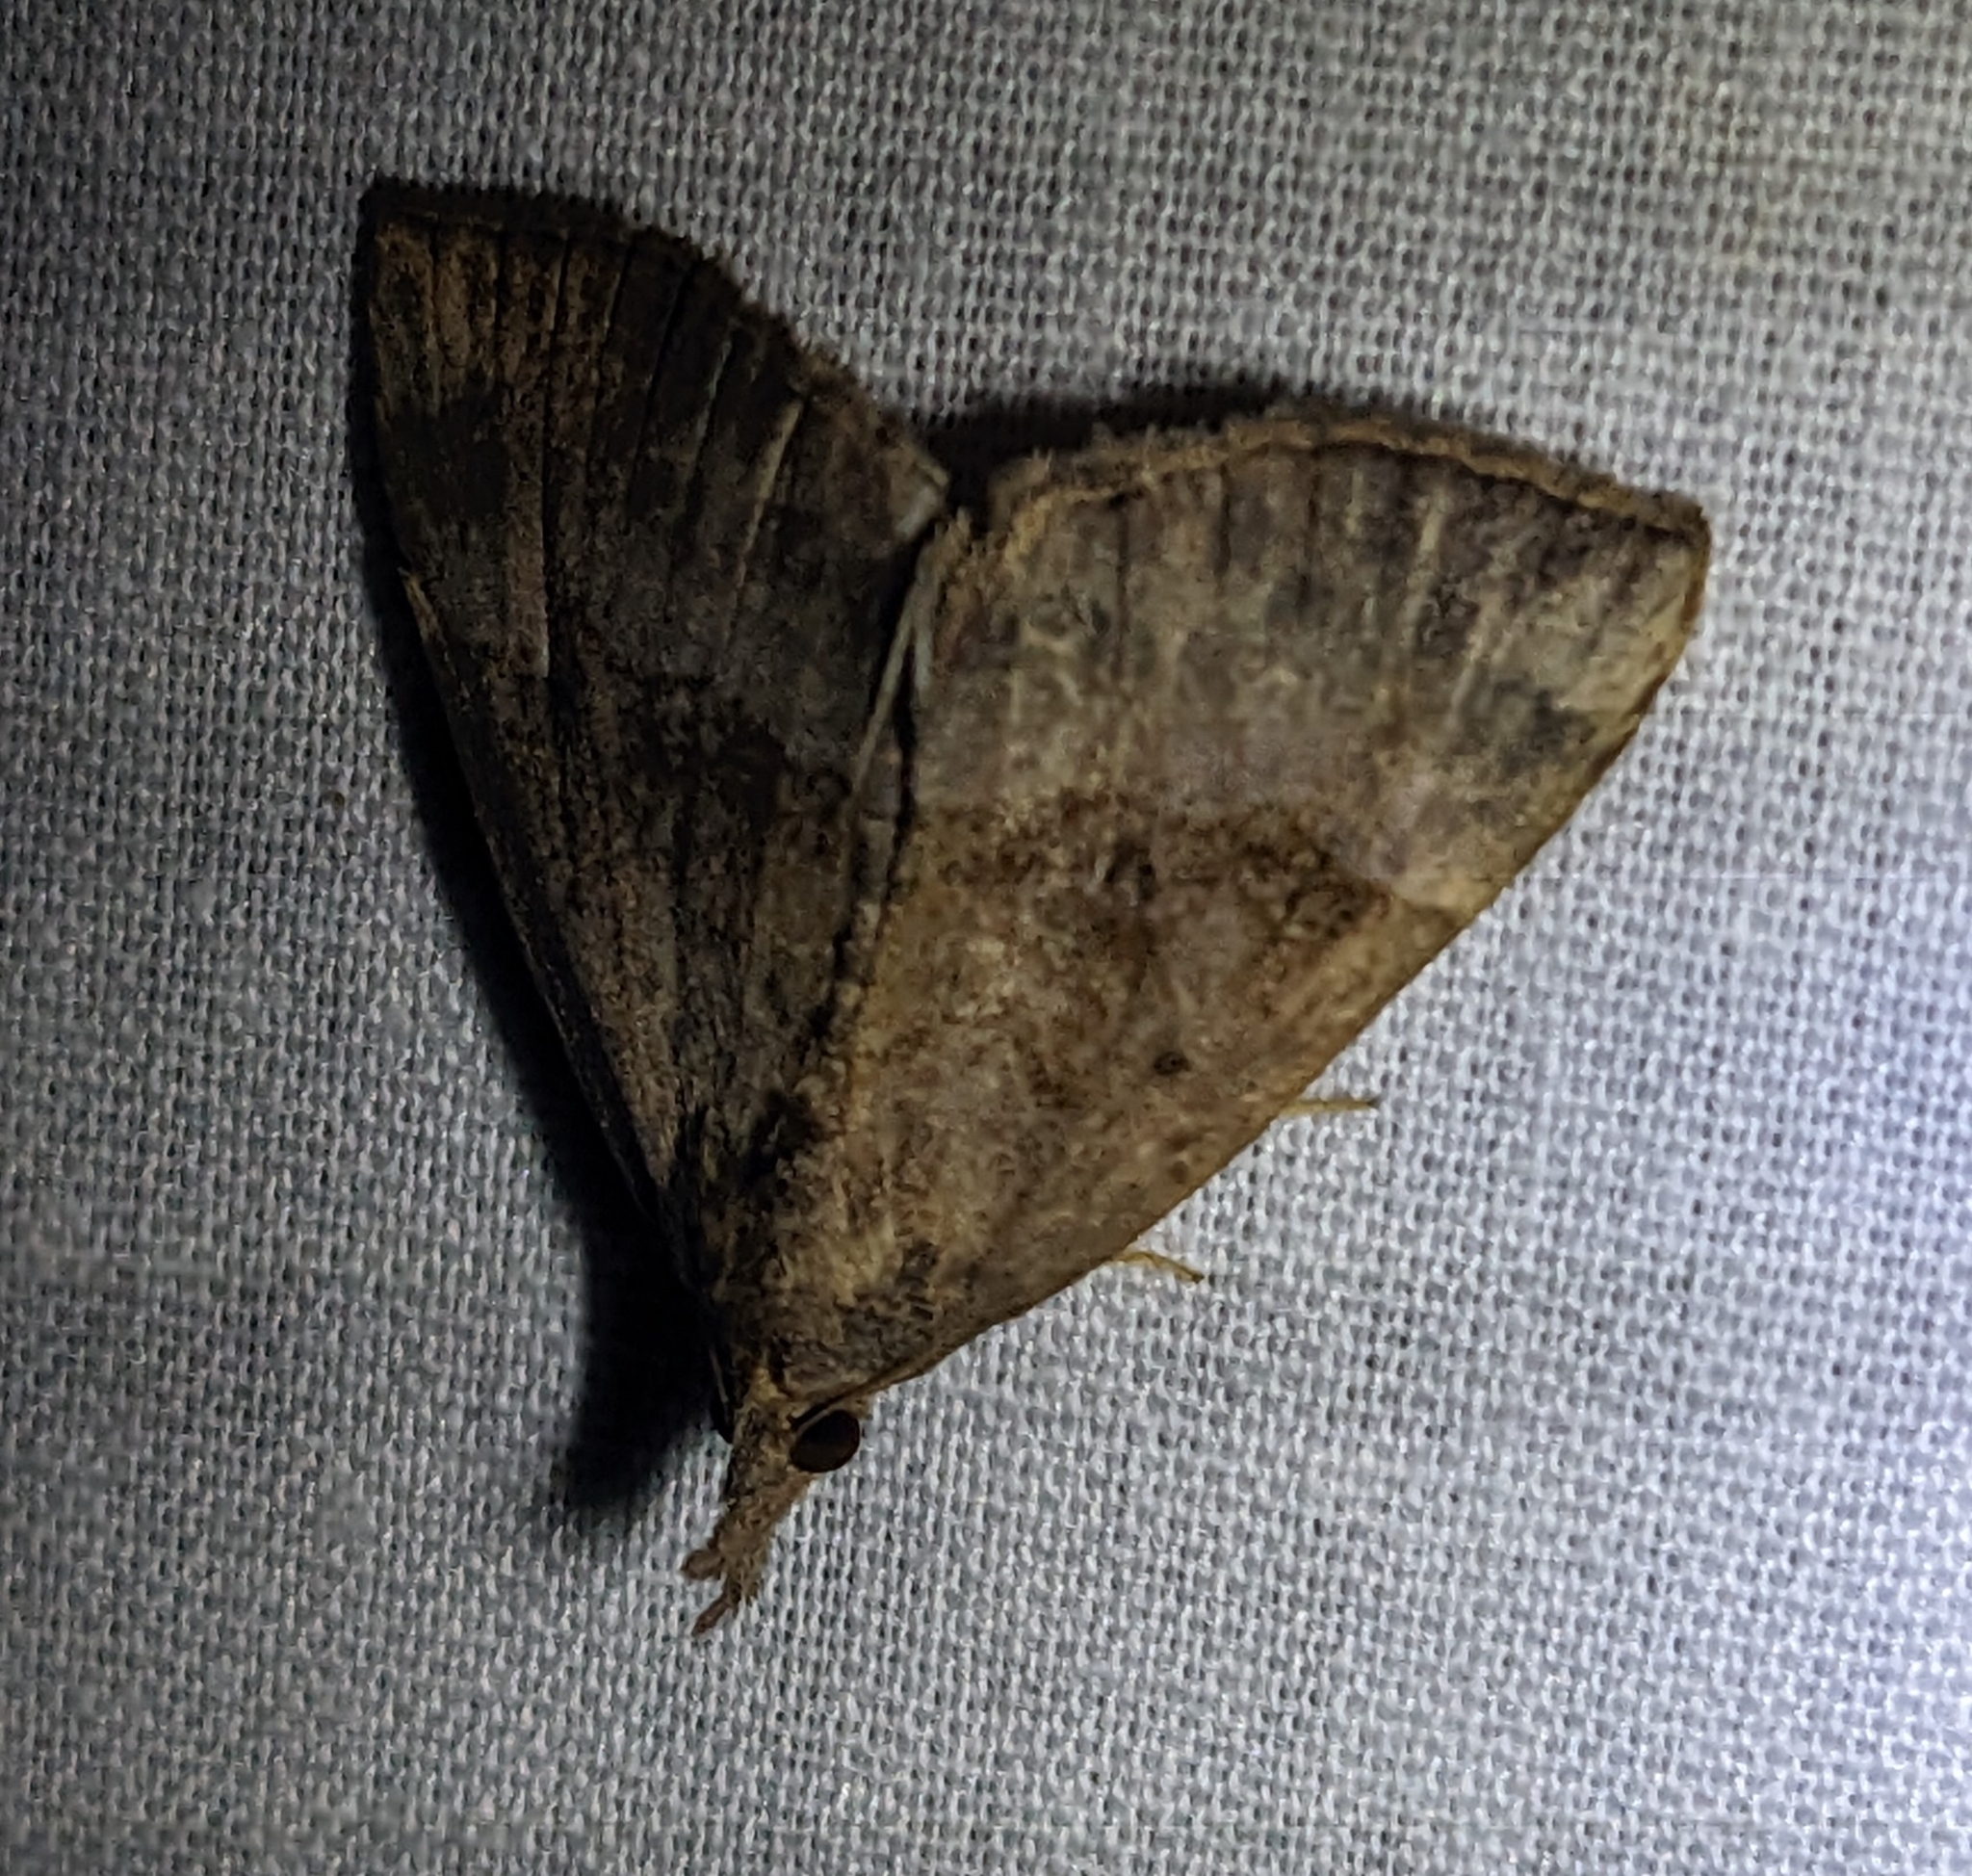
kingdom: Animalia
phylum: Arthropoda
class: Insecta
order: Lepidoptera
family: Erebidae
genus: Hypena
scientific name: Hypena madefactalis
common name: Gray-edged snout
